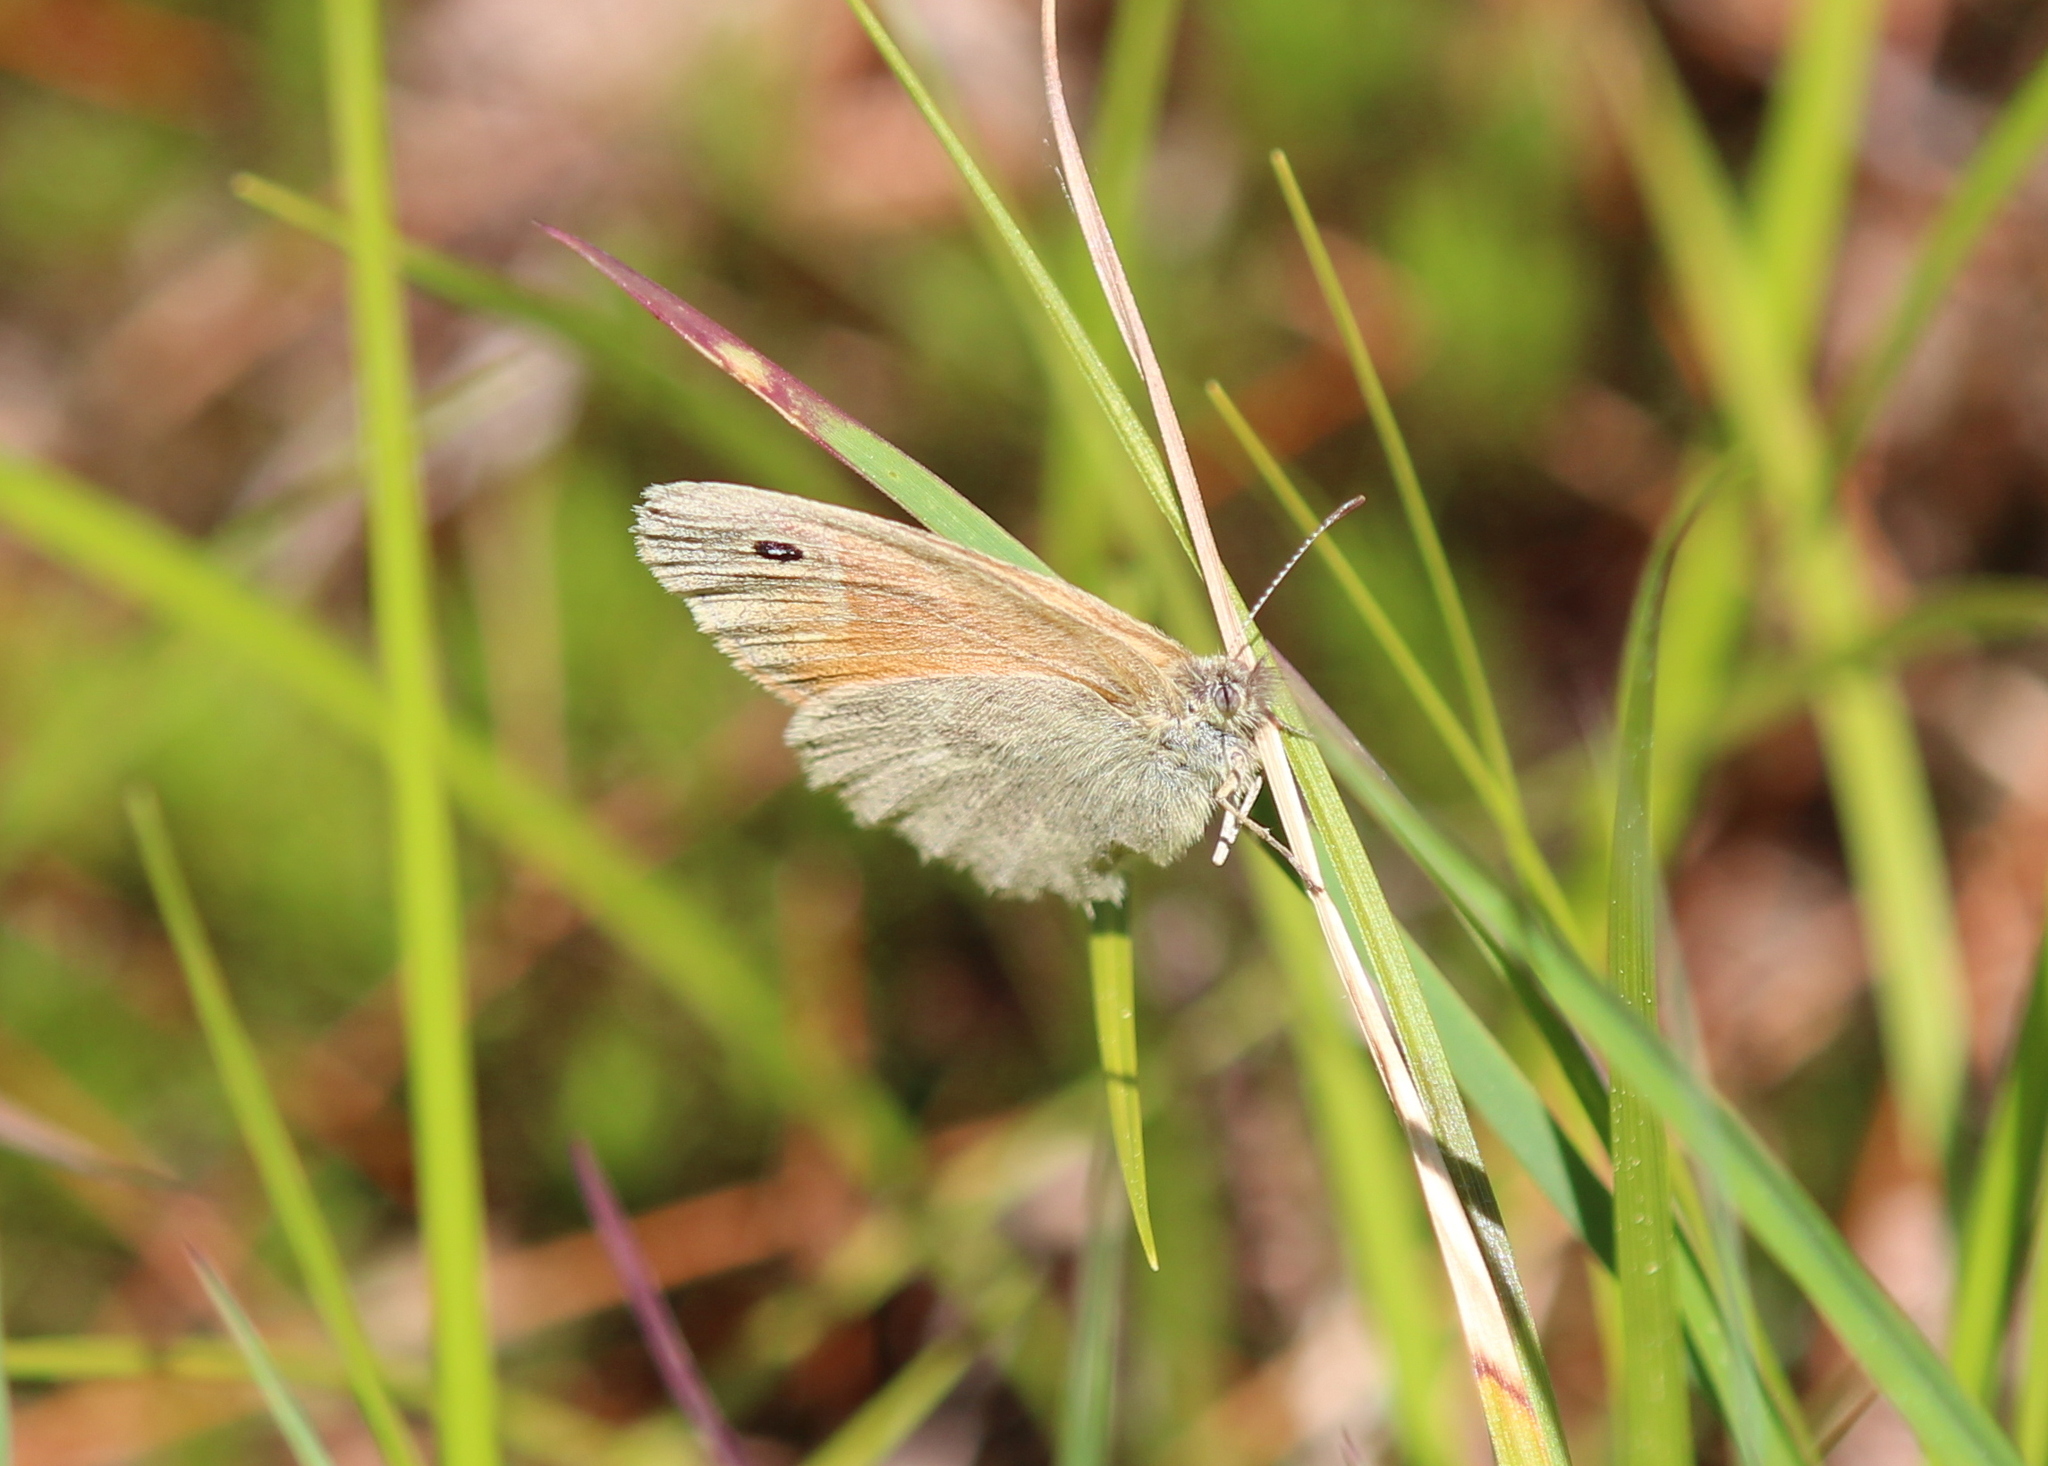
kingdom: Animalia
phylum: Arthropoda
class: Insecta
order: Lepidoptera
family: Nymphalidae
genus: Coenonympha
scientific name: Coenonympha california
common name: Common ringlet
